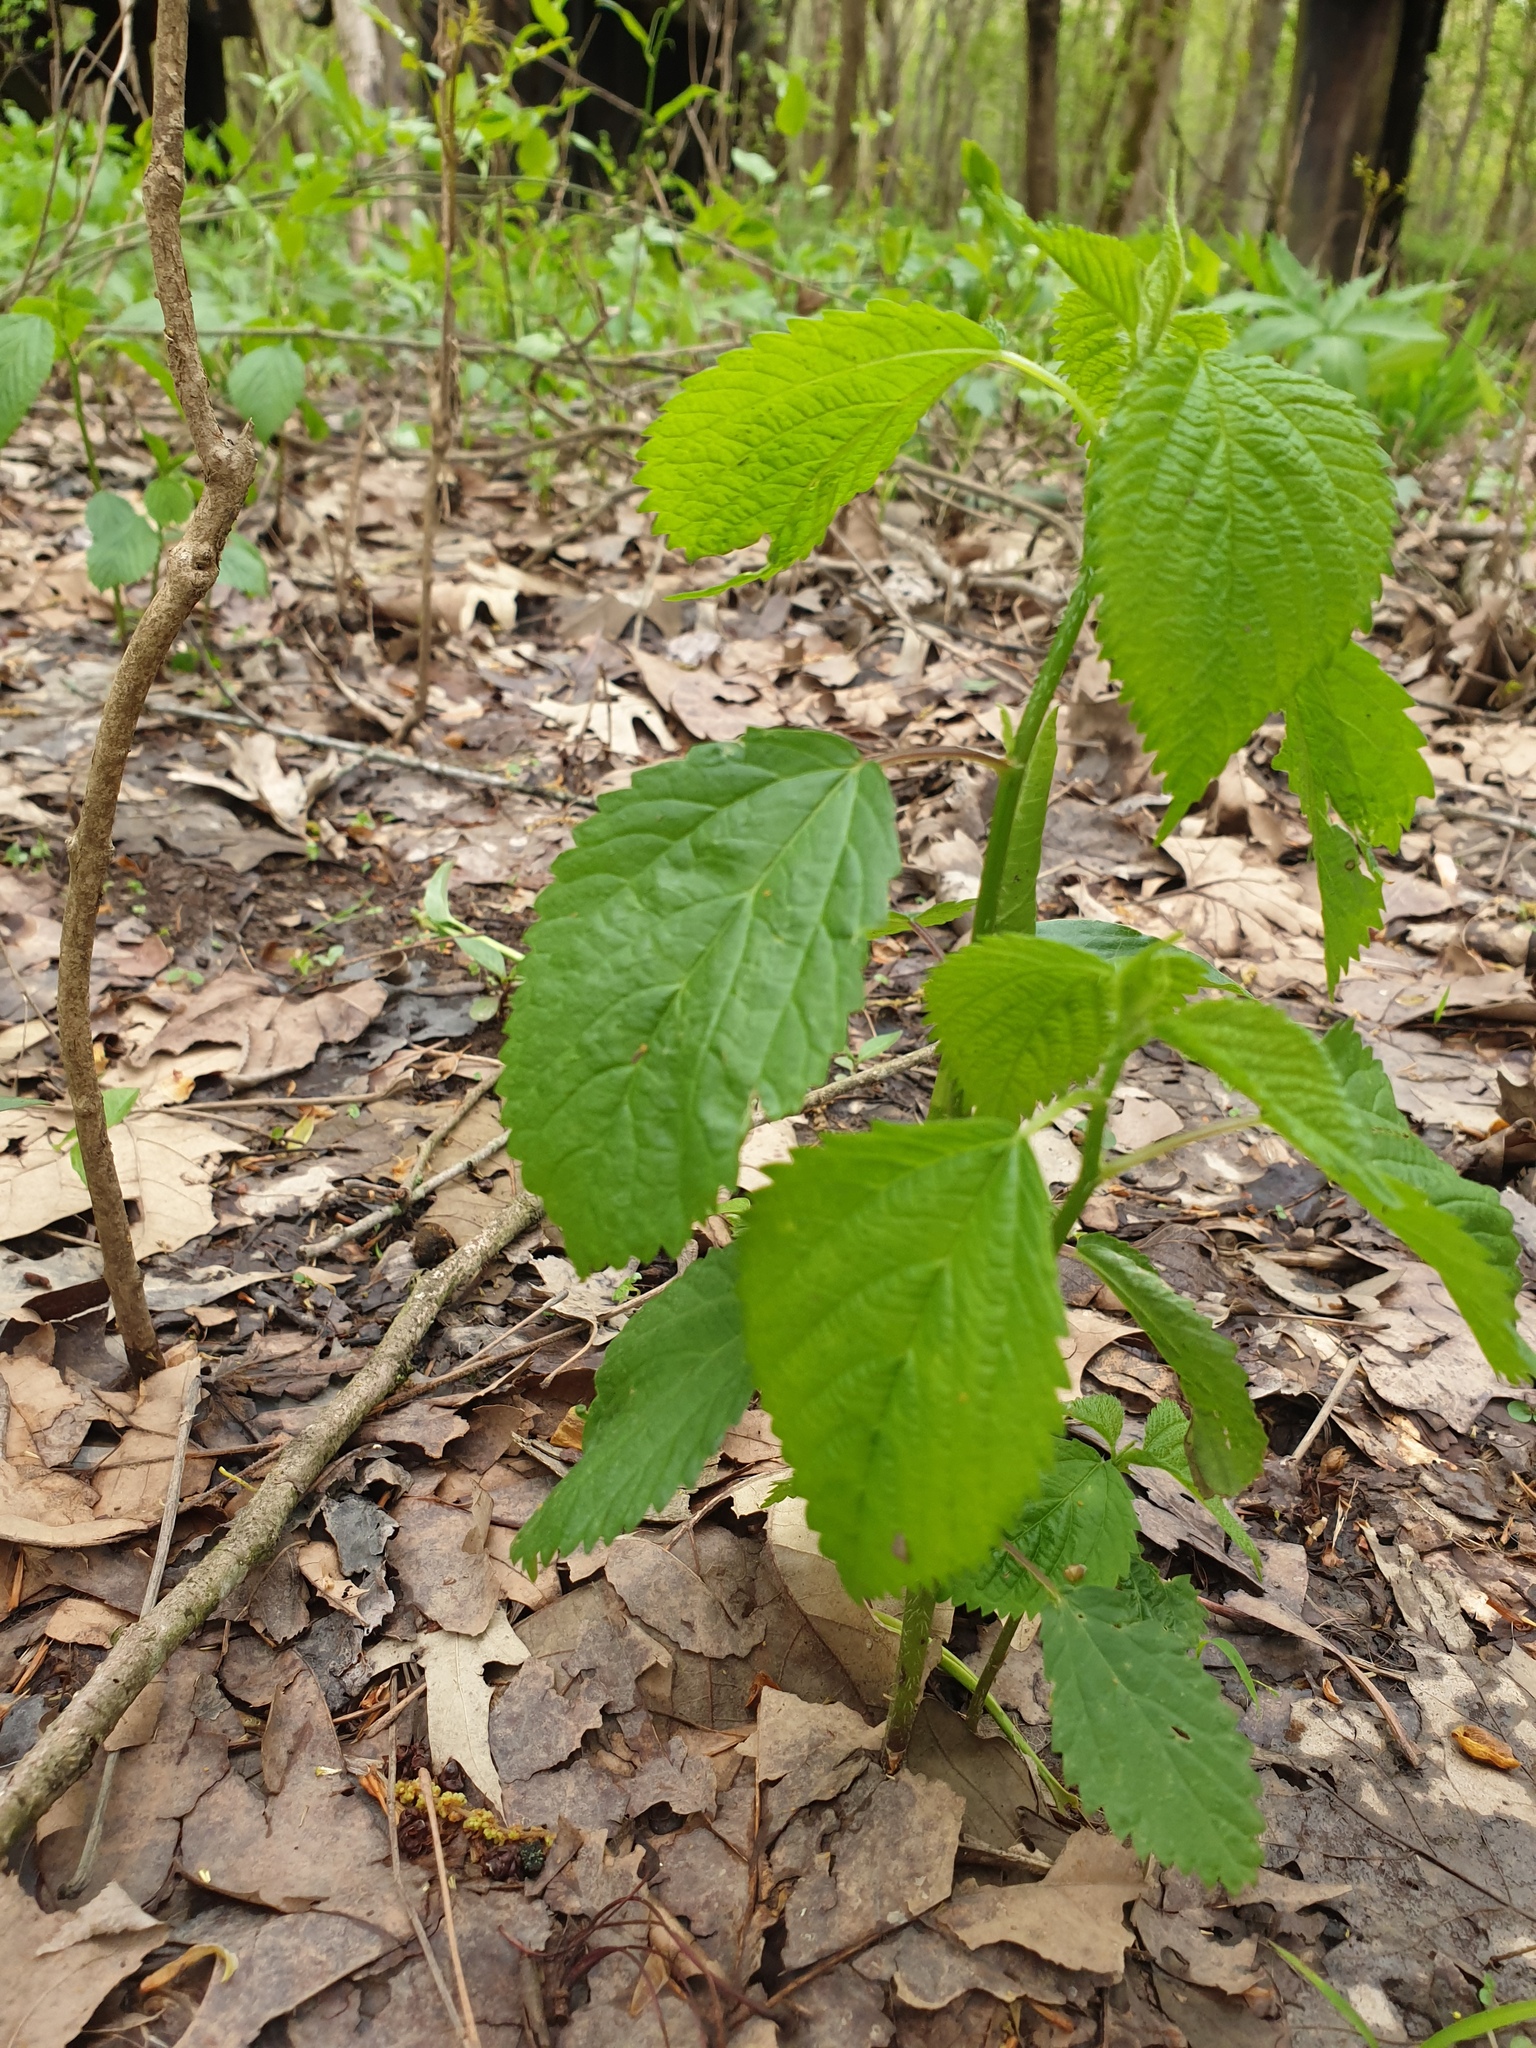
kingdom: Plantae
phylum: Tracheophyta
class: Magnoliopsida
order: Rosales
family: Urticaceae
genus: Laportea
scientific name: Laportea canadensis
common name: Canada nettle
